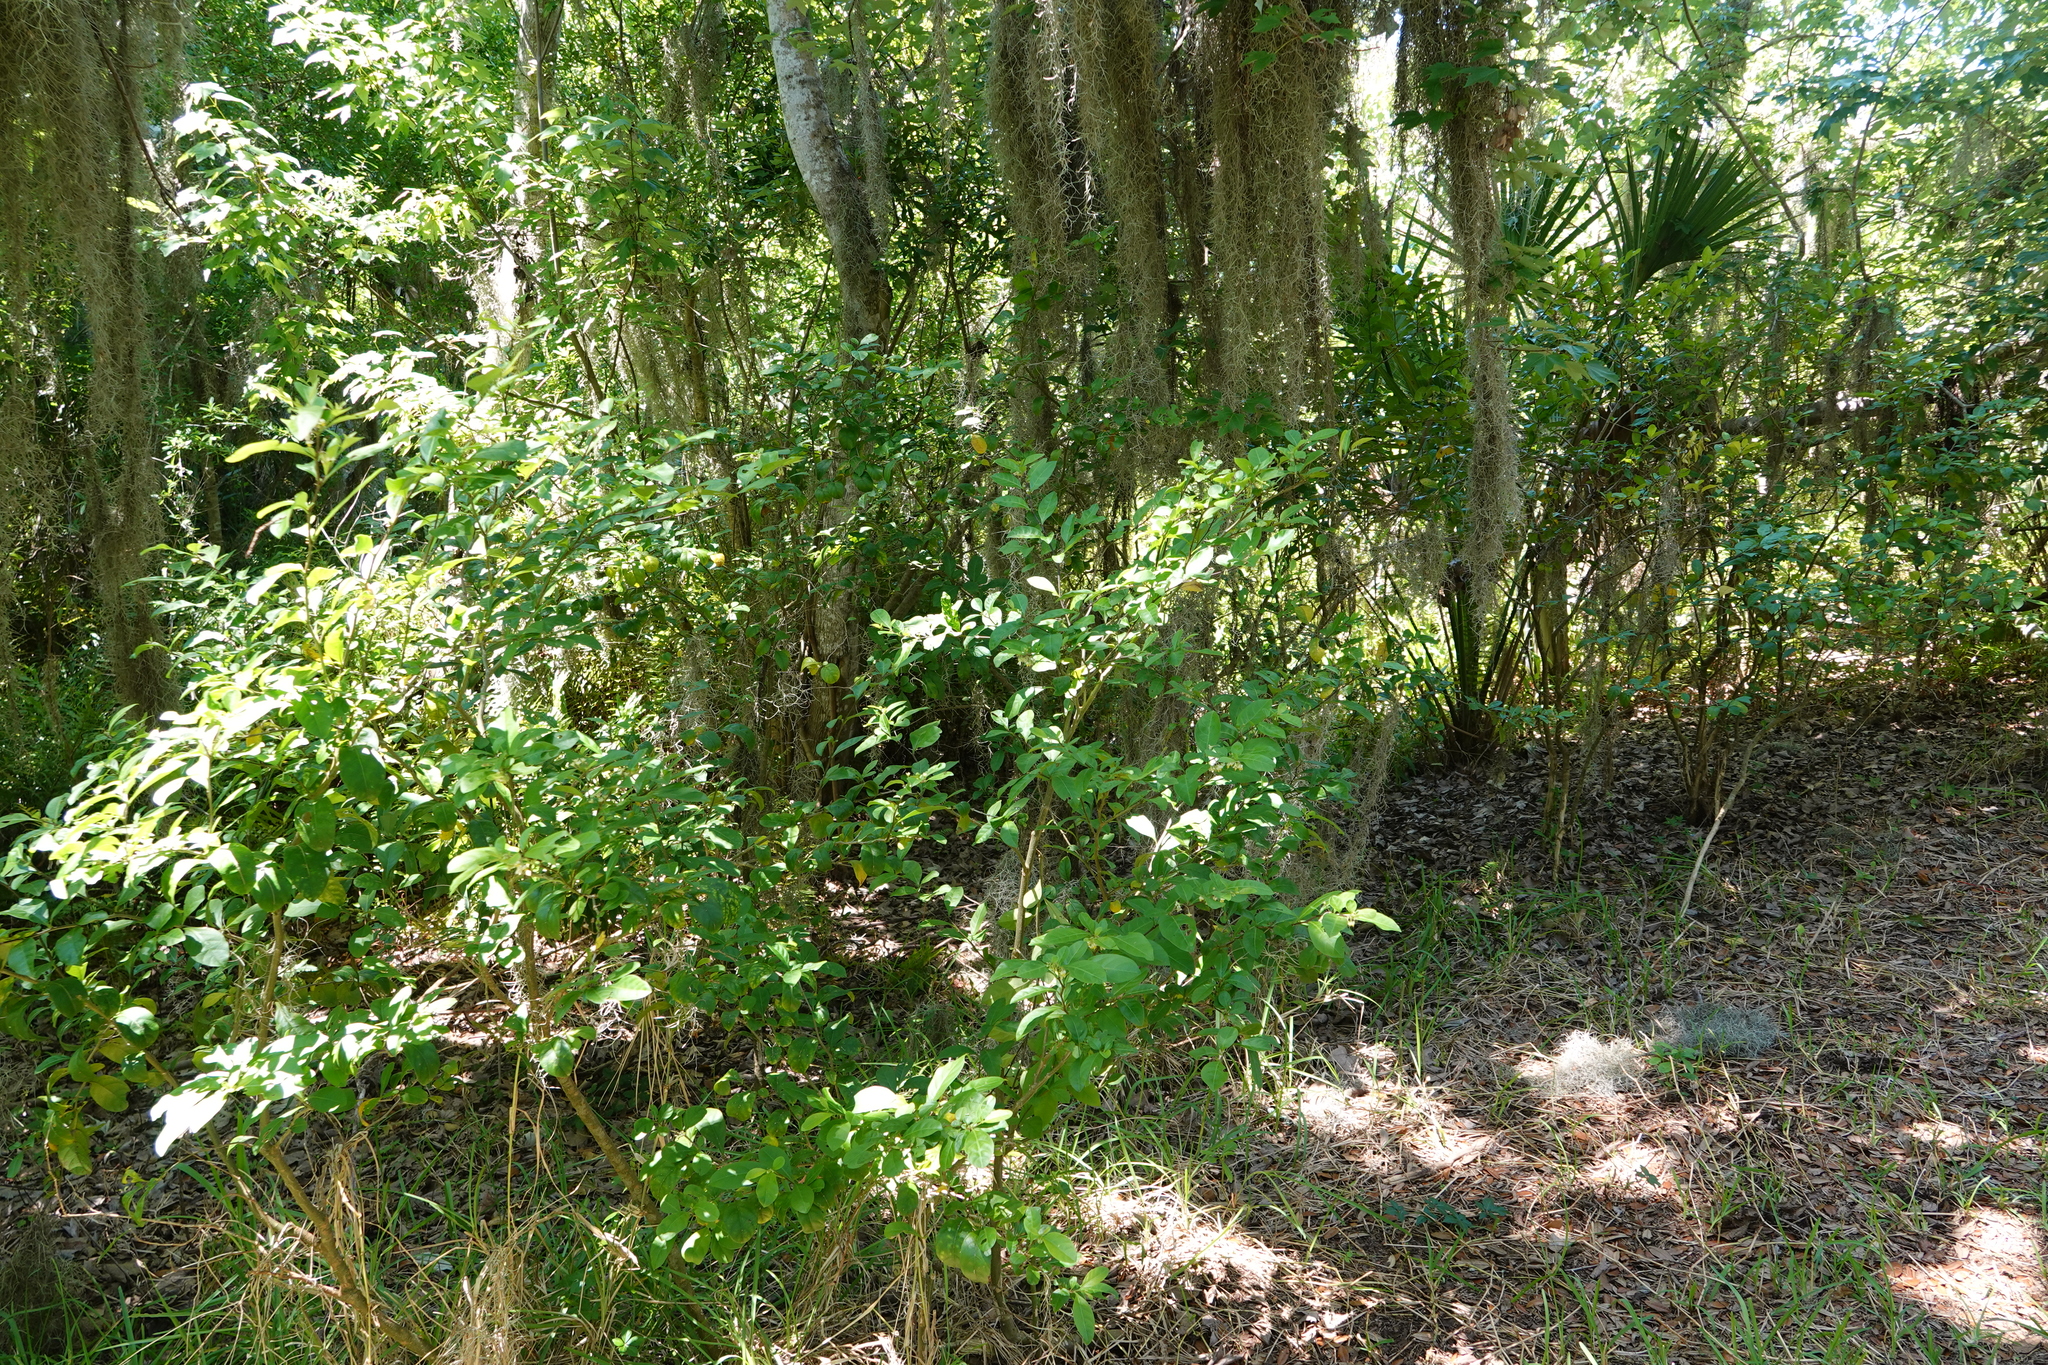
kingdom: Plantae
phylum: Tracheophyta
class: Magnoliopsida
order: Solanales
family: Solanaceae
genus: Solanum
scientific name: Solanum diphyllum
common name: Twoleaf nightshade
